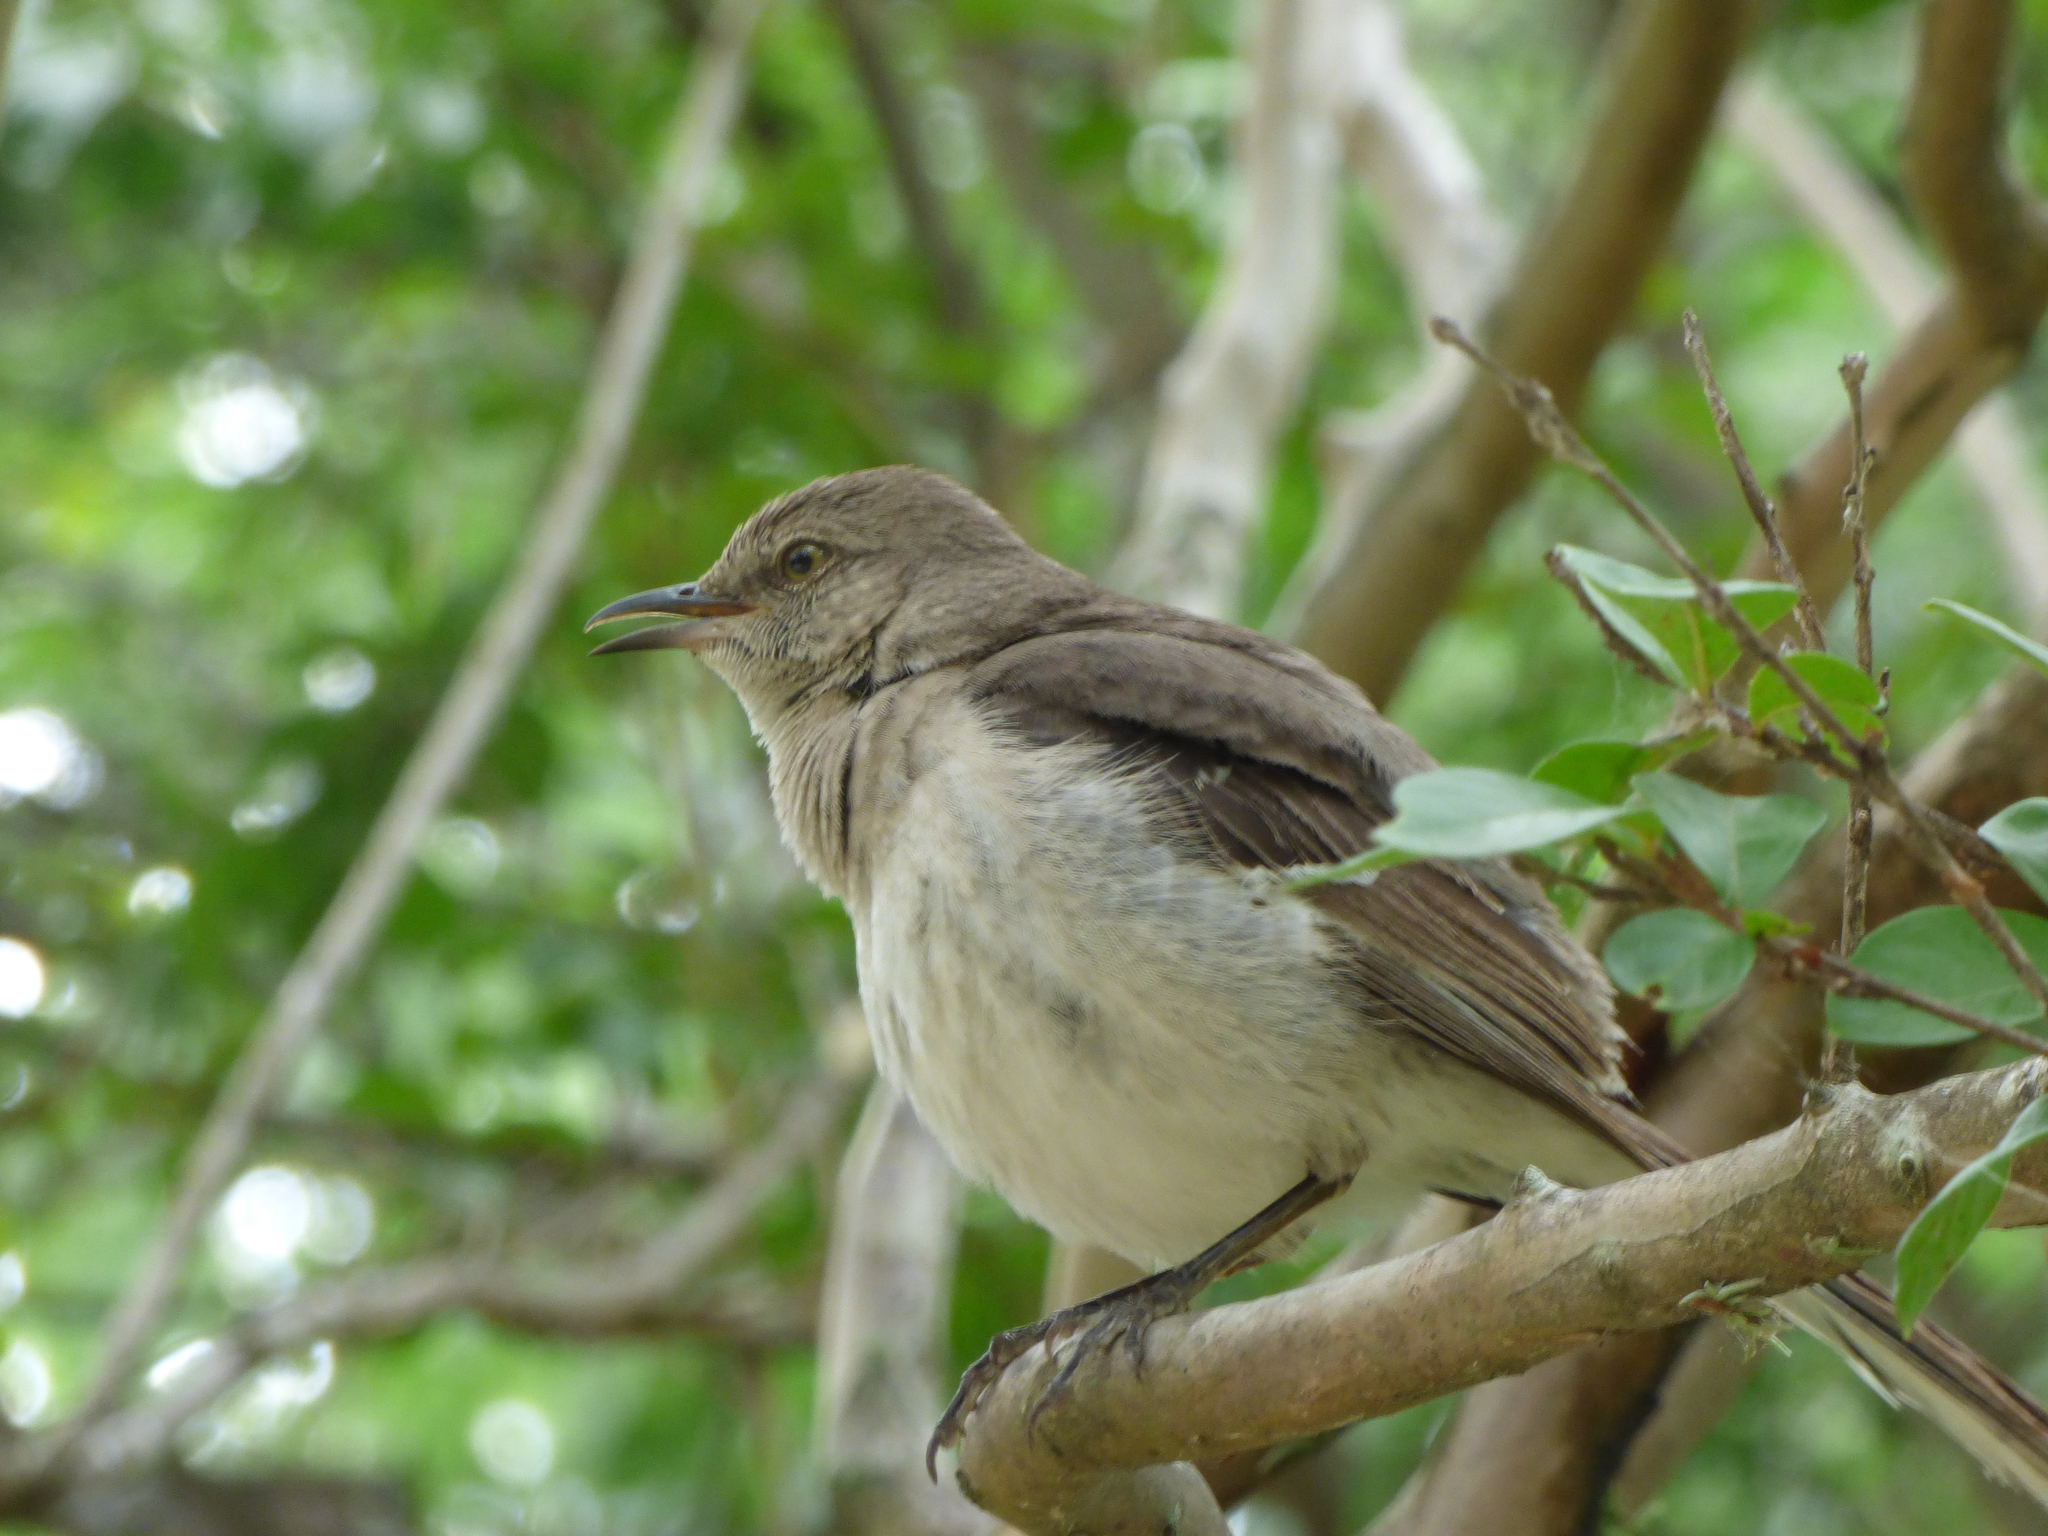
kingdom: Animalia
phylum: Chordata
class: Aves
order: Passeriformes
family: Mimidae
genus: Mimus
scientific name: Mimus polyglottos
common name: Northern mockingbird
